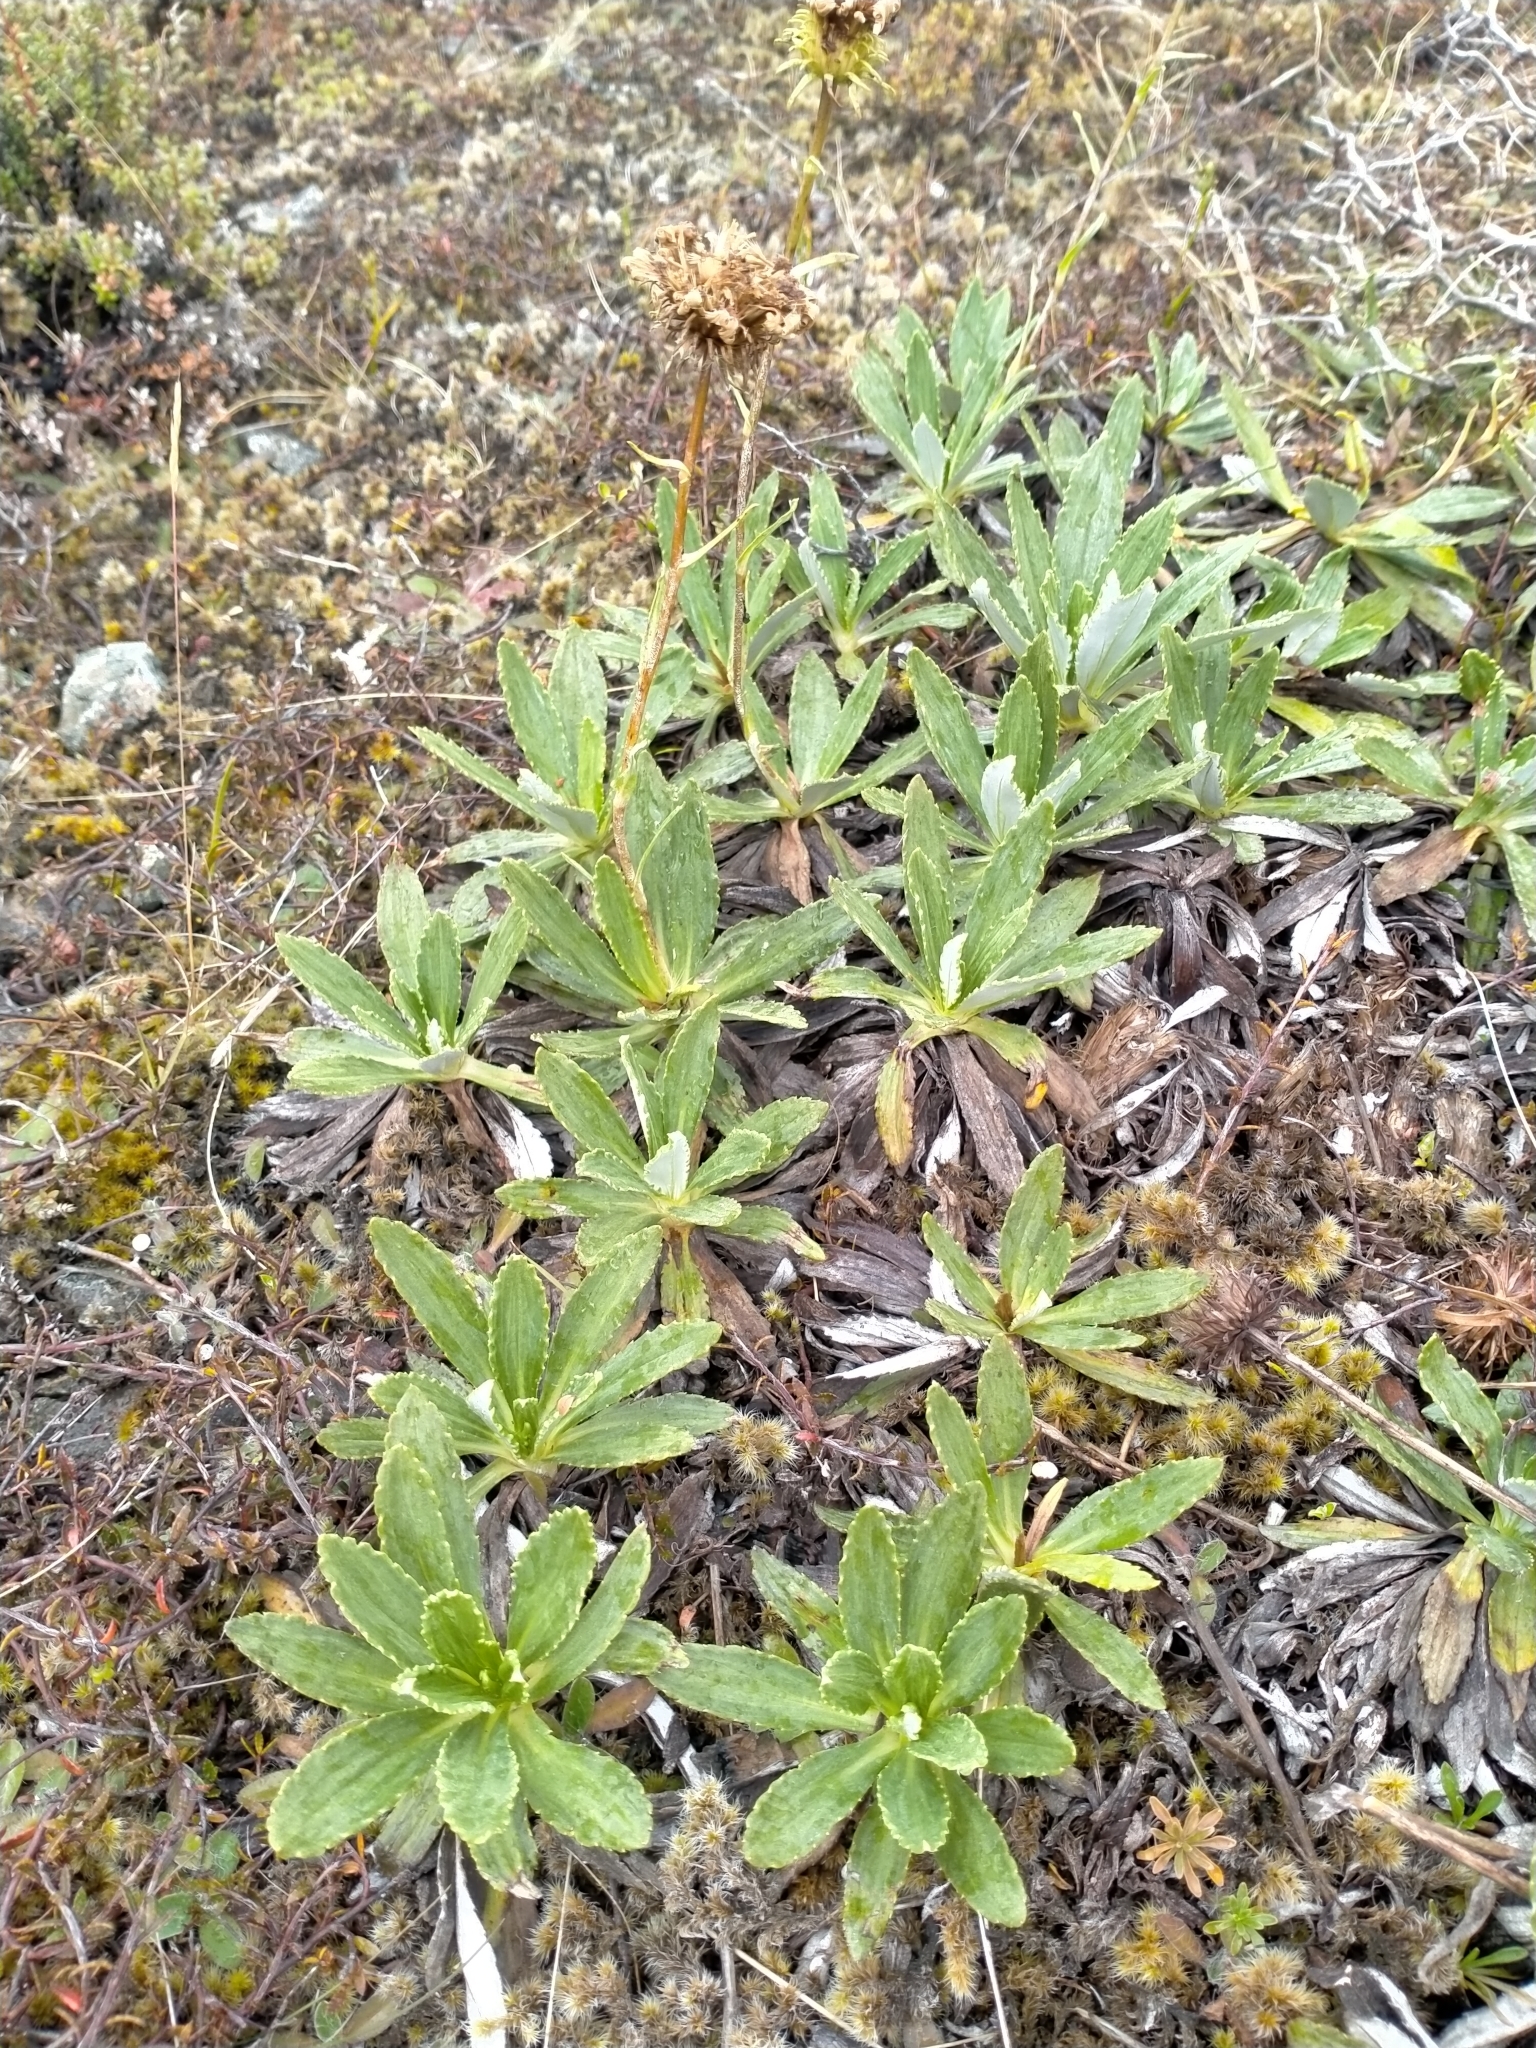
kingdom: Plantae
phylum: Tracheophyta
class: Magnoliopsida
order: Asterales
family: Asteraceae
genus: Celmisia
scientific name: Celmisia densiflora
